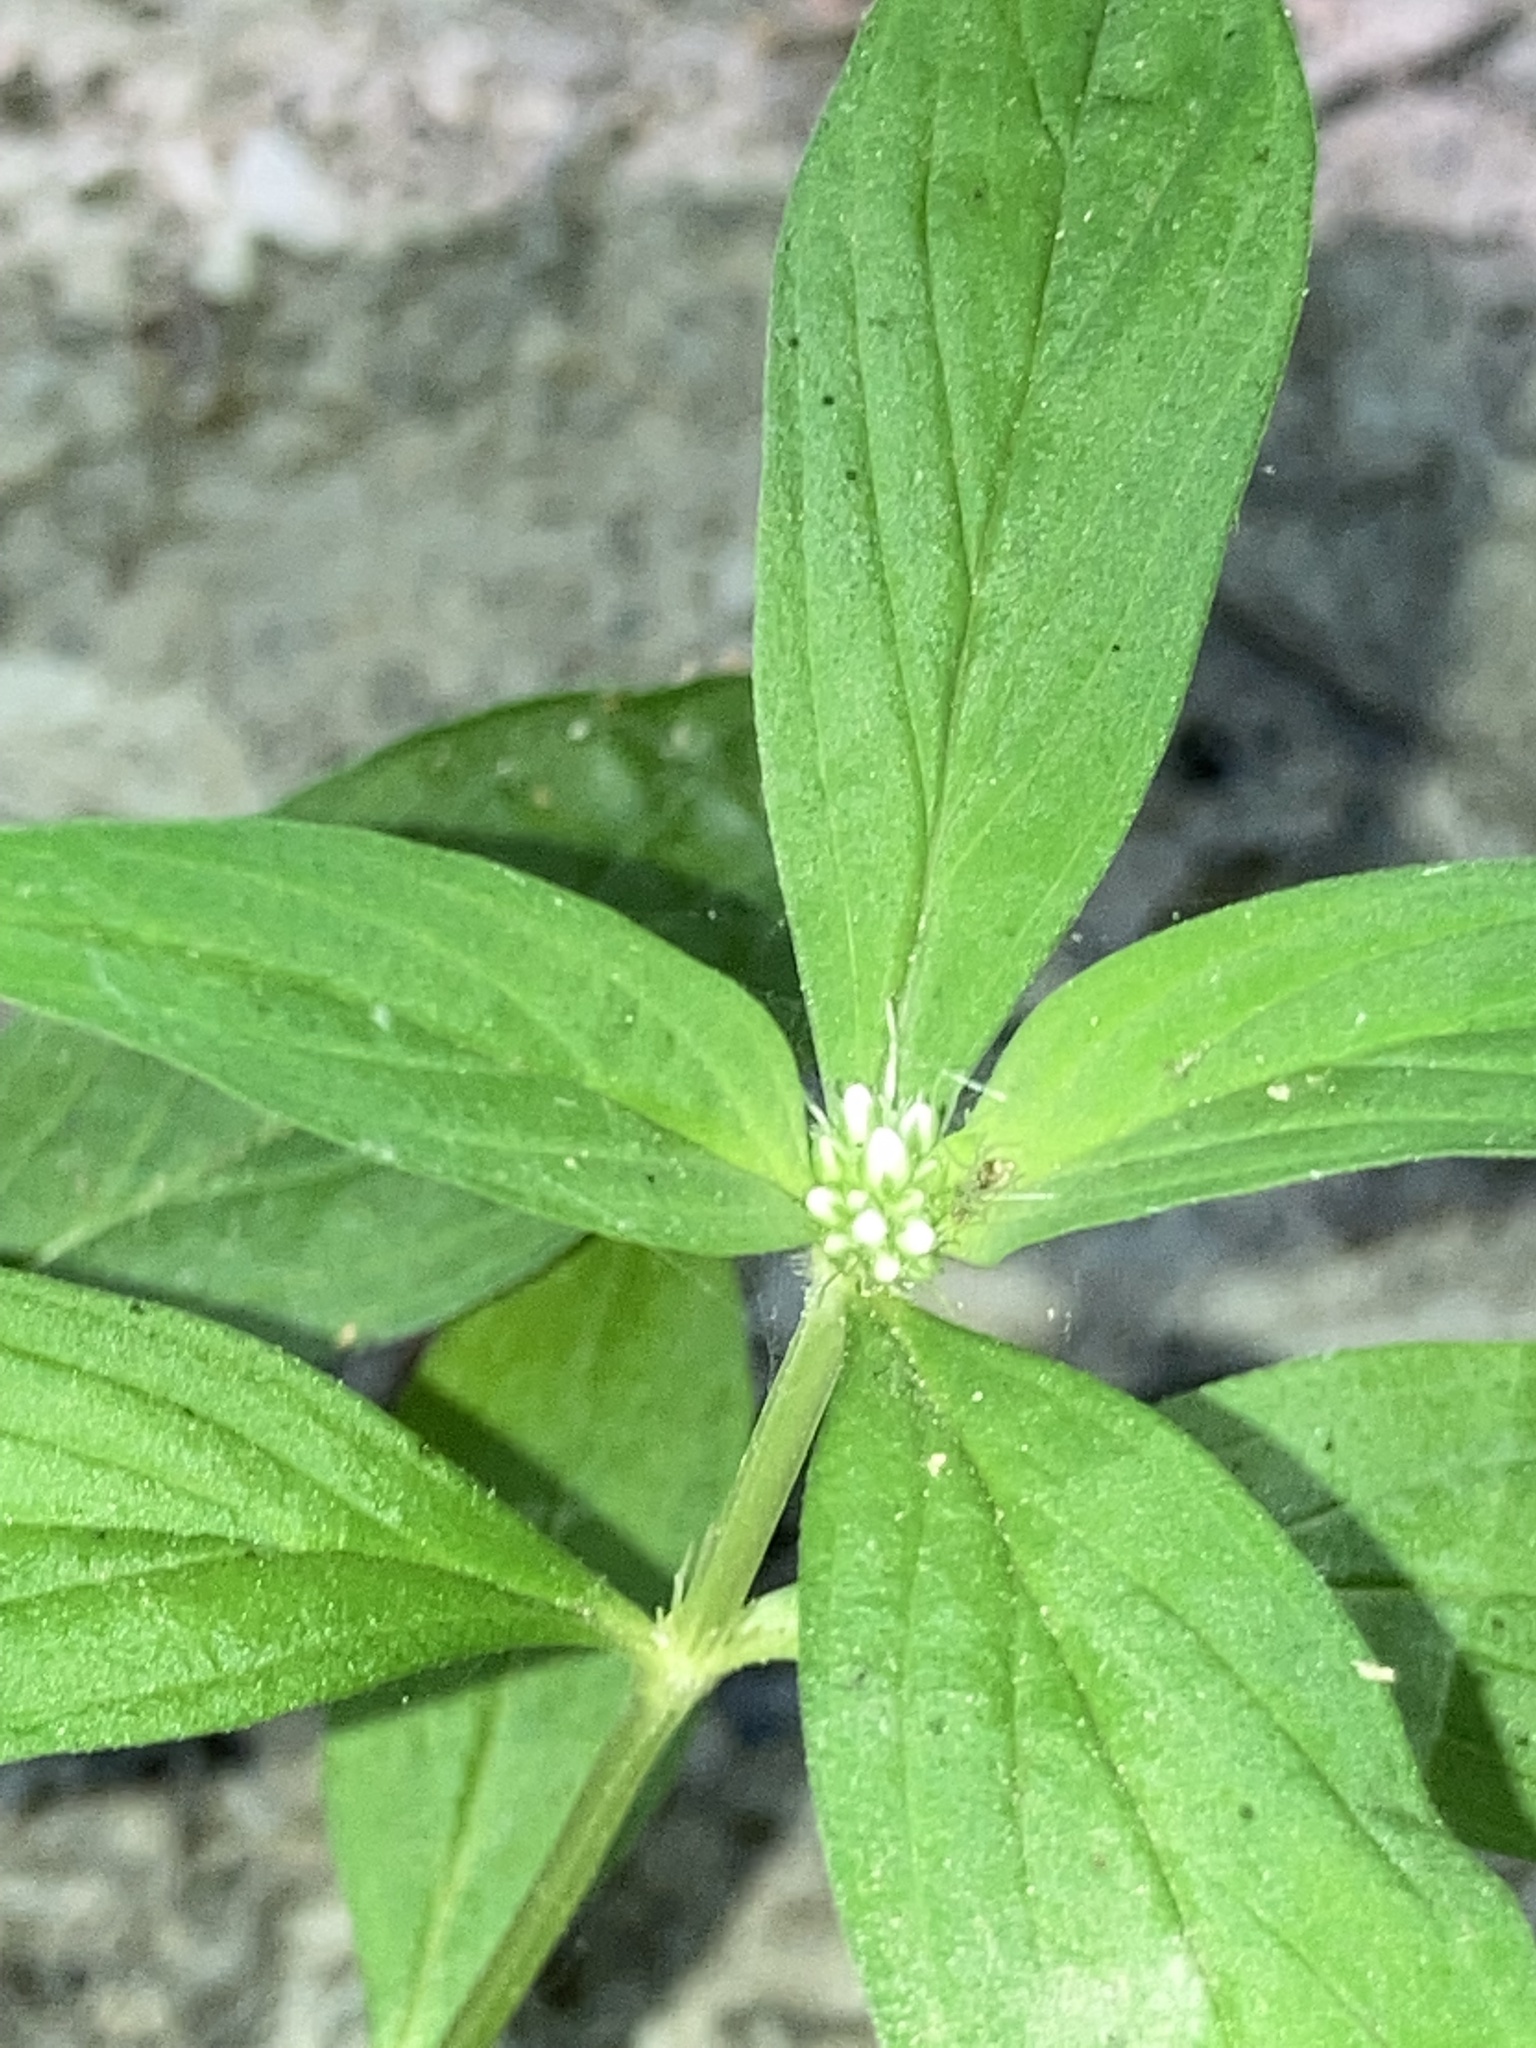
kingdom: Plantae
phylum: Tracheophyta
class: Magnoliopsida
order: Gentianales
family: Rubiaceae
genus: Spermacoce
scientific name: Spermacoce glabra
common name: Smooth buttonweed
